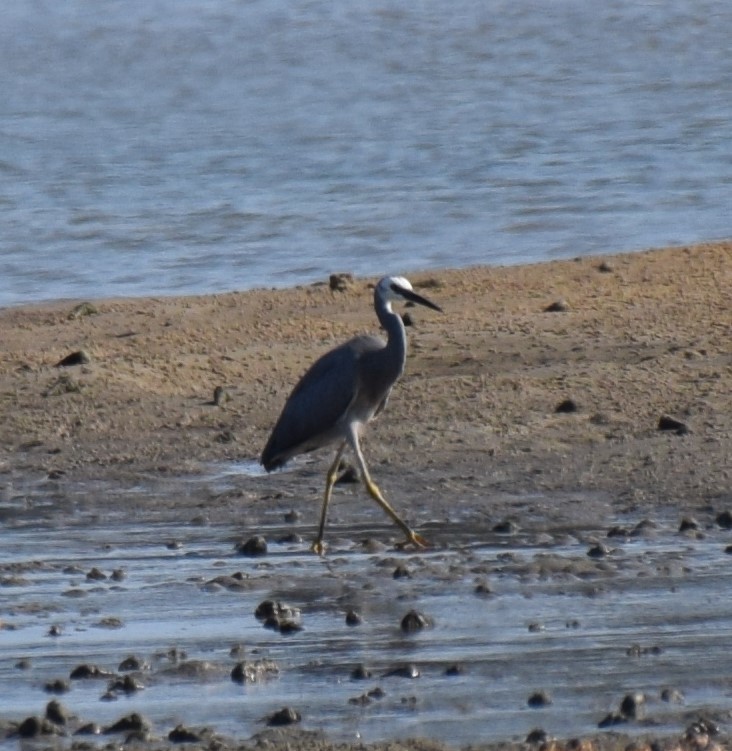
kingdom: Animalia
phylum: Chordata
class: Aves
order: Pelecaniformes
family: Ardeidae
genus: Egretta
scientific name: Egretta novaehollandiae
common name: White-faced heron
